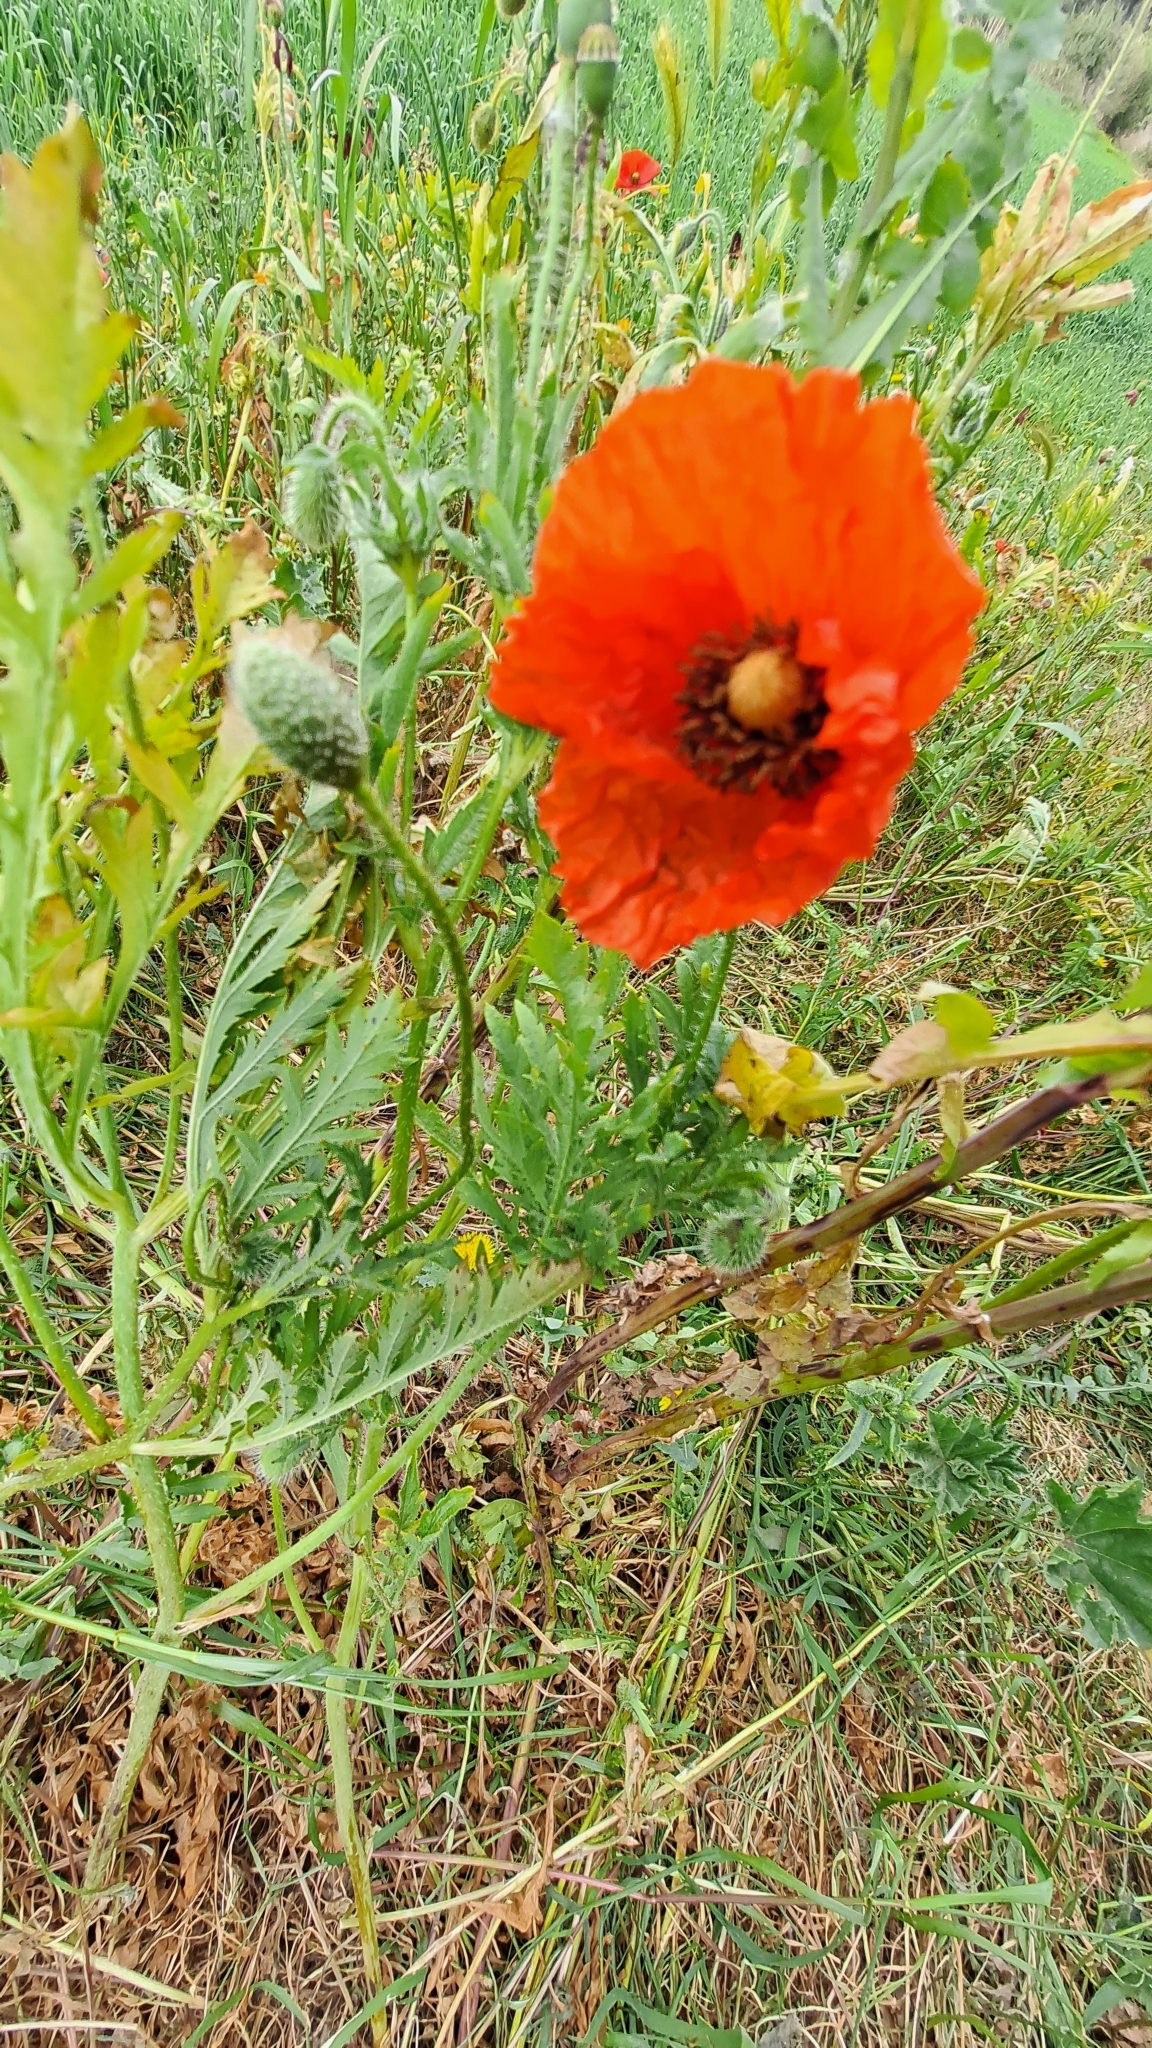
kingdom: Plantae
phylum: Tracheophyta
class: Magnoliopsida
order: Ranunculales
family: Papaveraceae
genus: Papaver
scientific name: Papaver rhoeas
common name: Corn poppy
